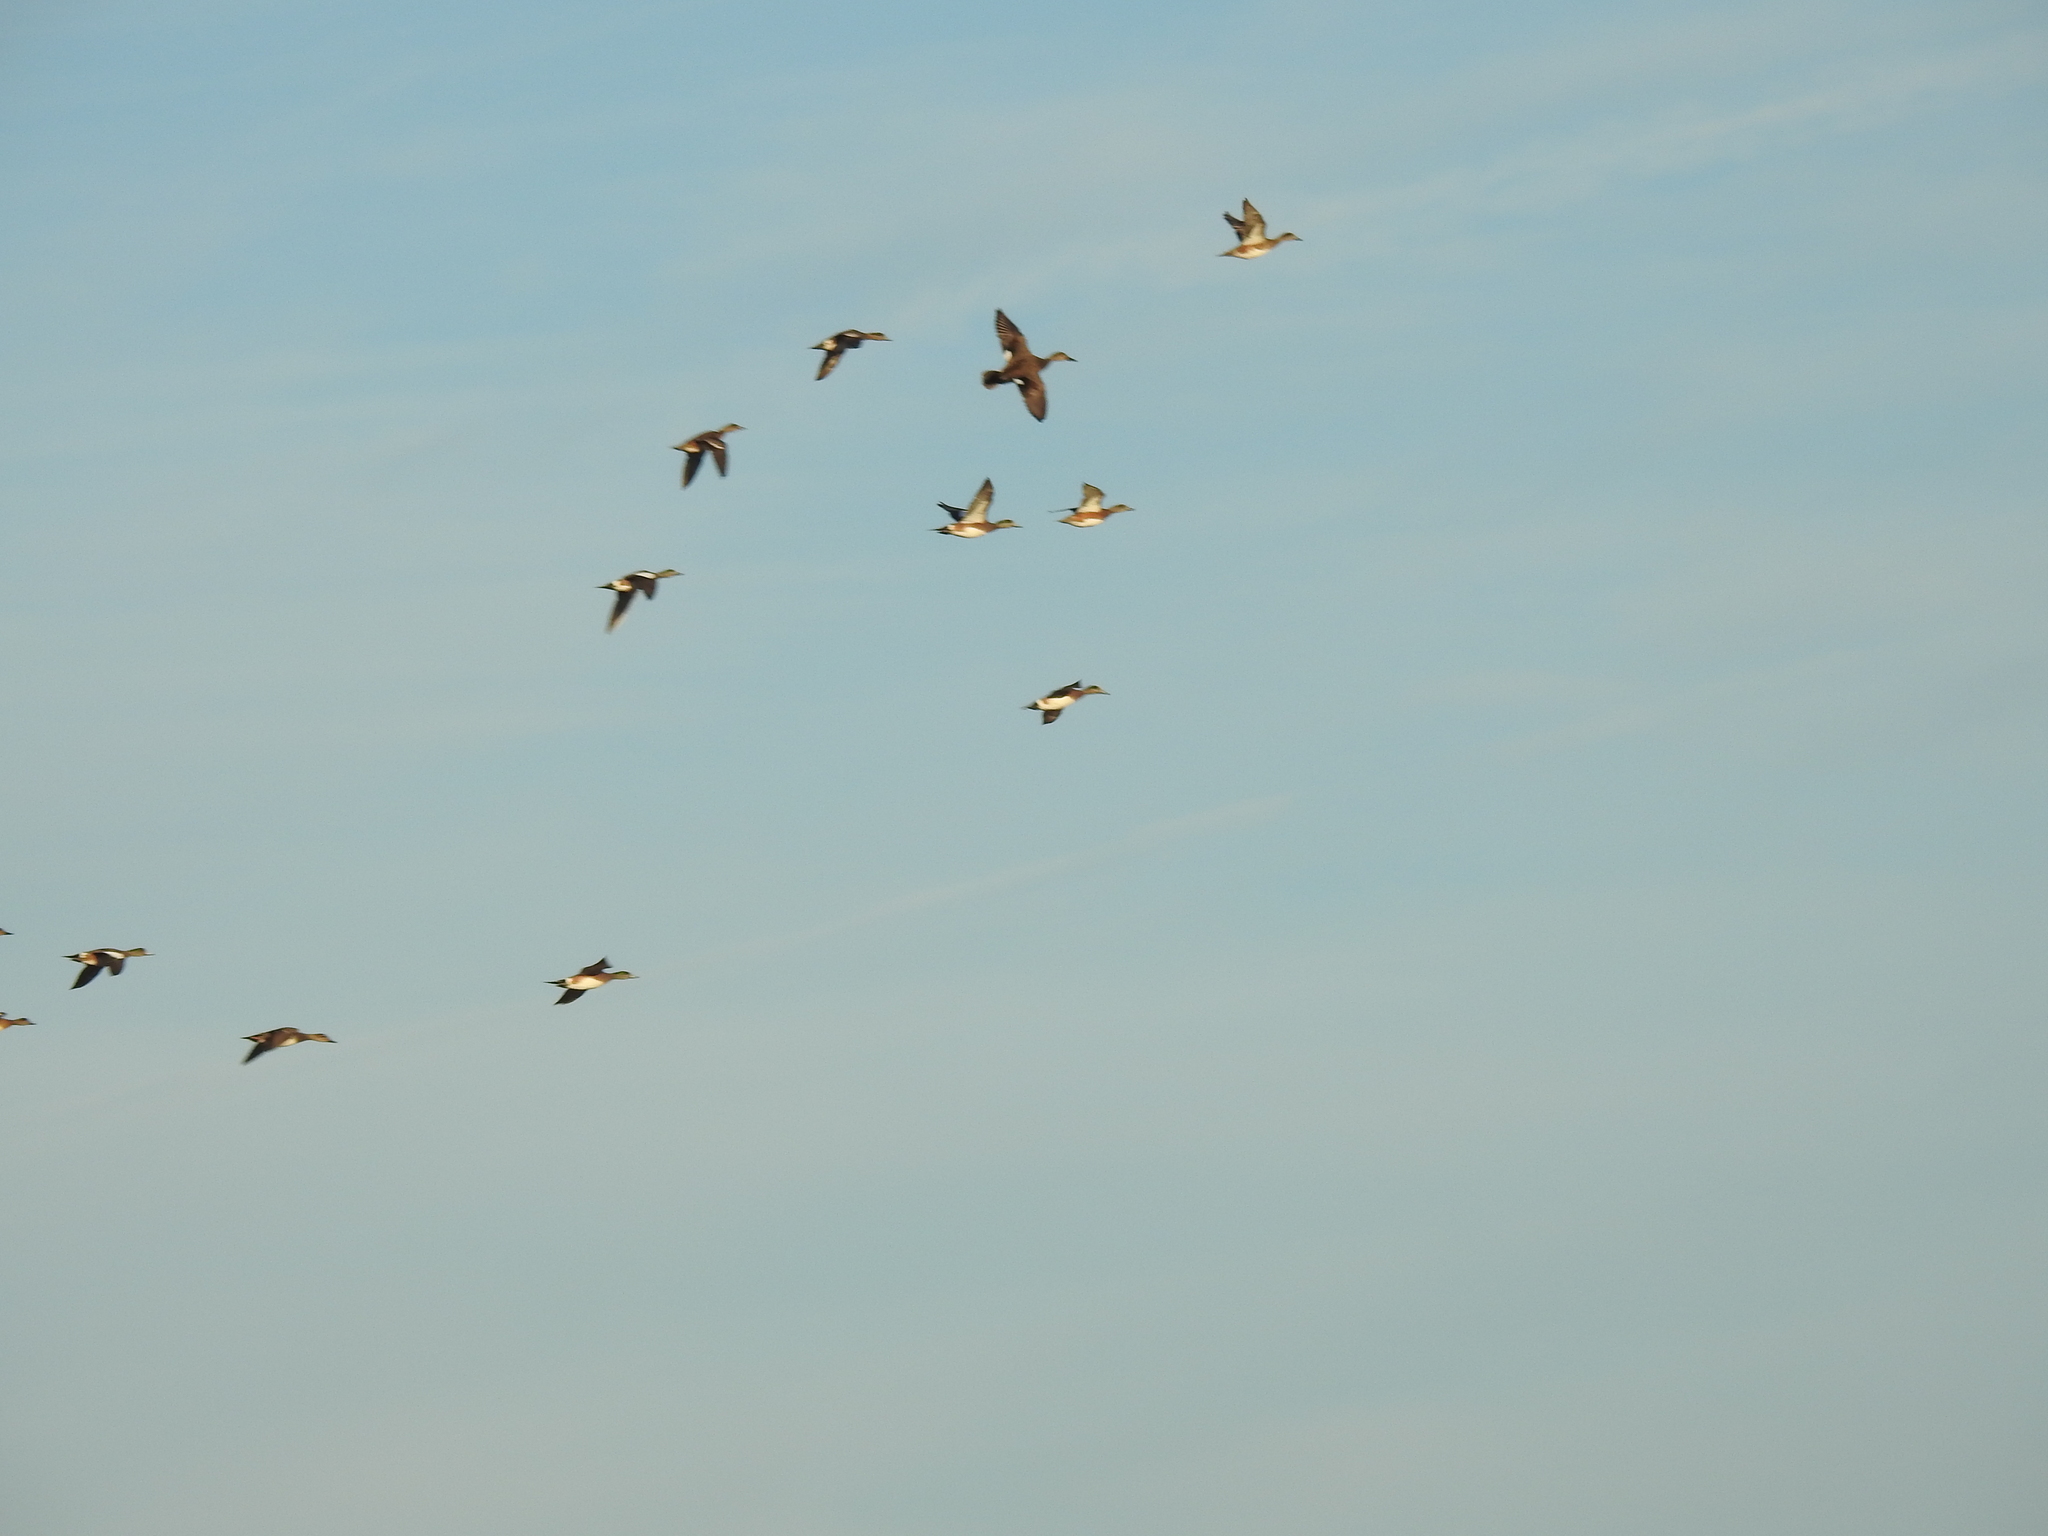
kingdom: Animalia
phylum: Chordata
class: Aves
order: Anseriformes
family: Anatidae
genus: Spatula
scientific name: Spatula clypeata
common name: Northern shoveler
